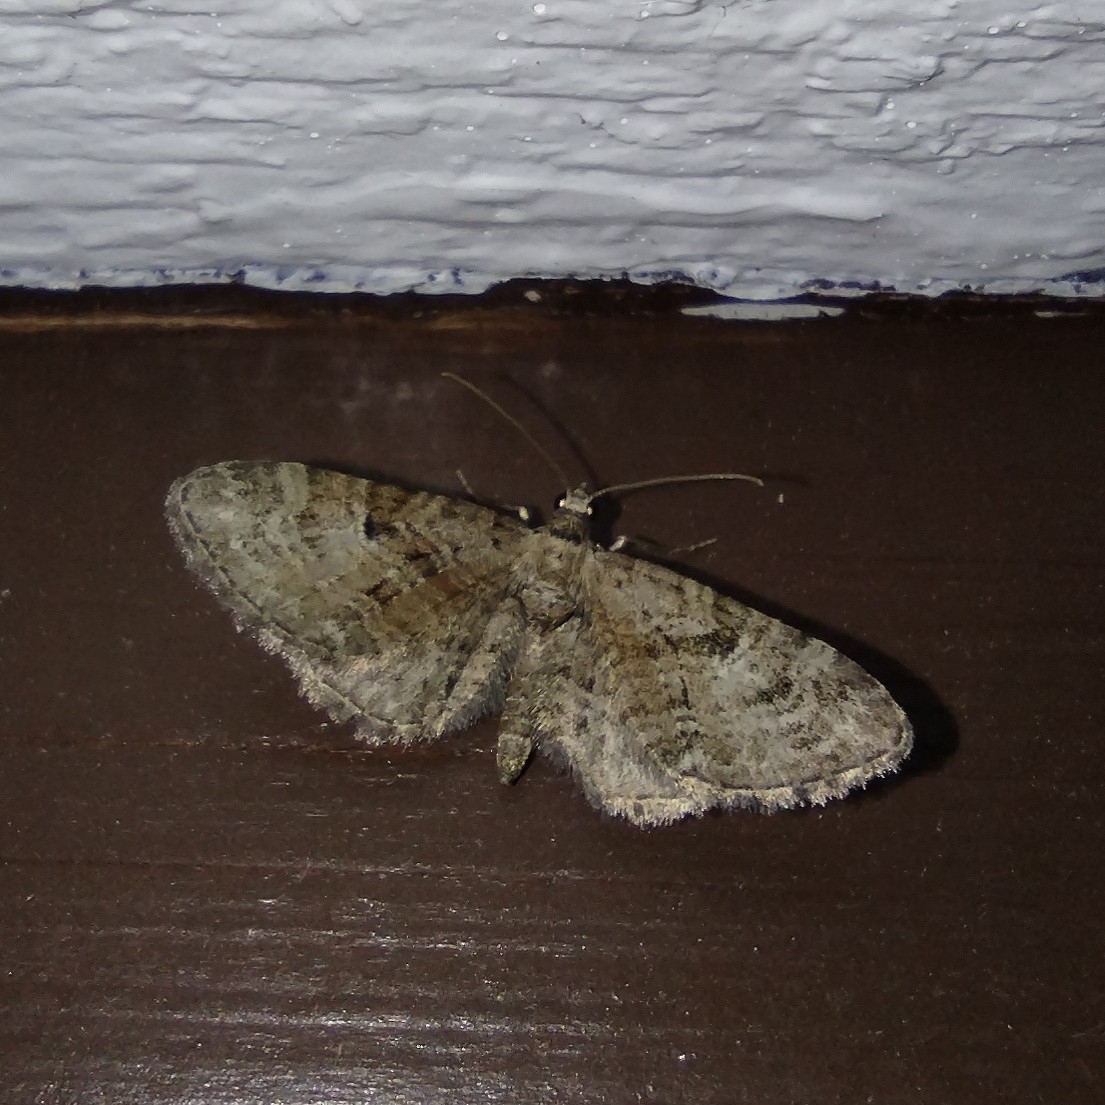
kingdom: Animalia
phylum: Arthropoda
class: Insecta
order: Lepidoptera
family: Geometridae
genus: Eupithecia
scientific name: Eupithecia pusillata
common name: Juniper pug
